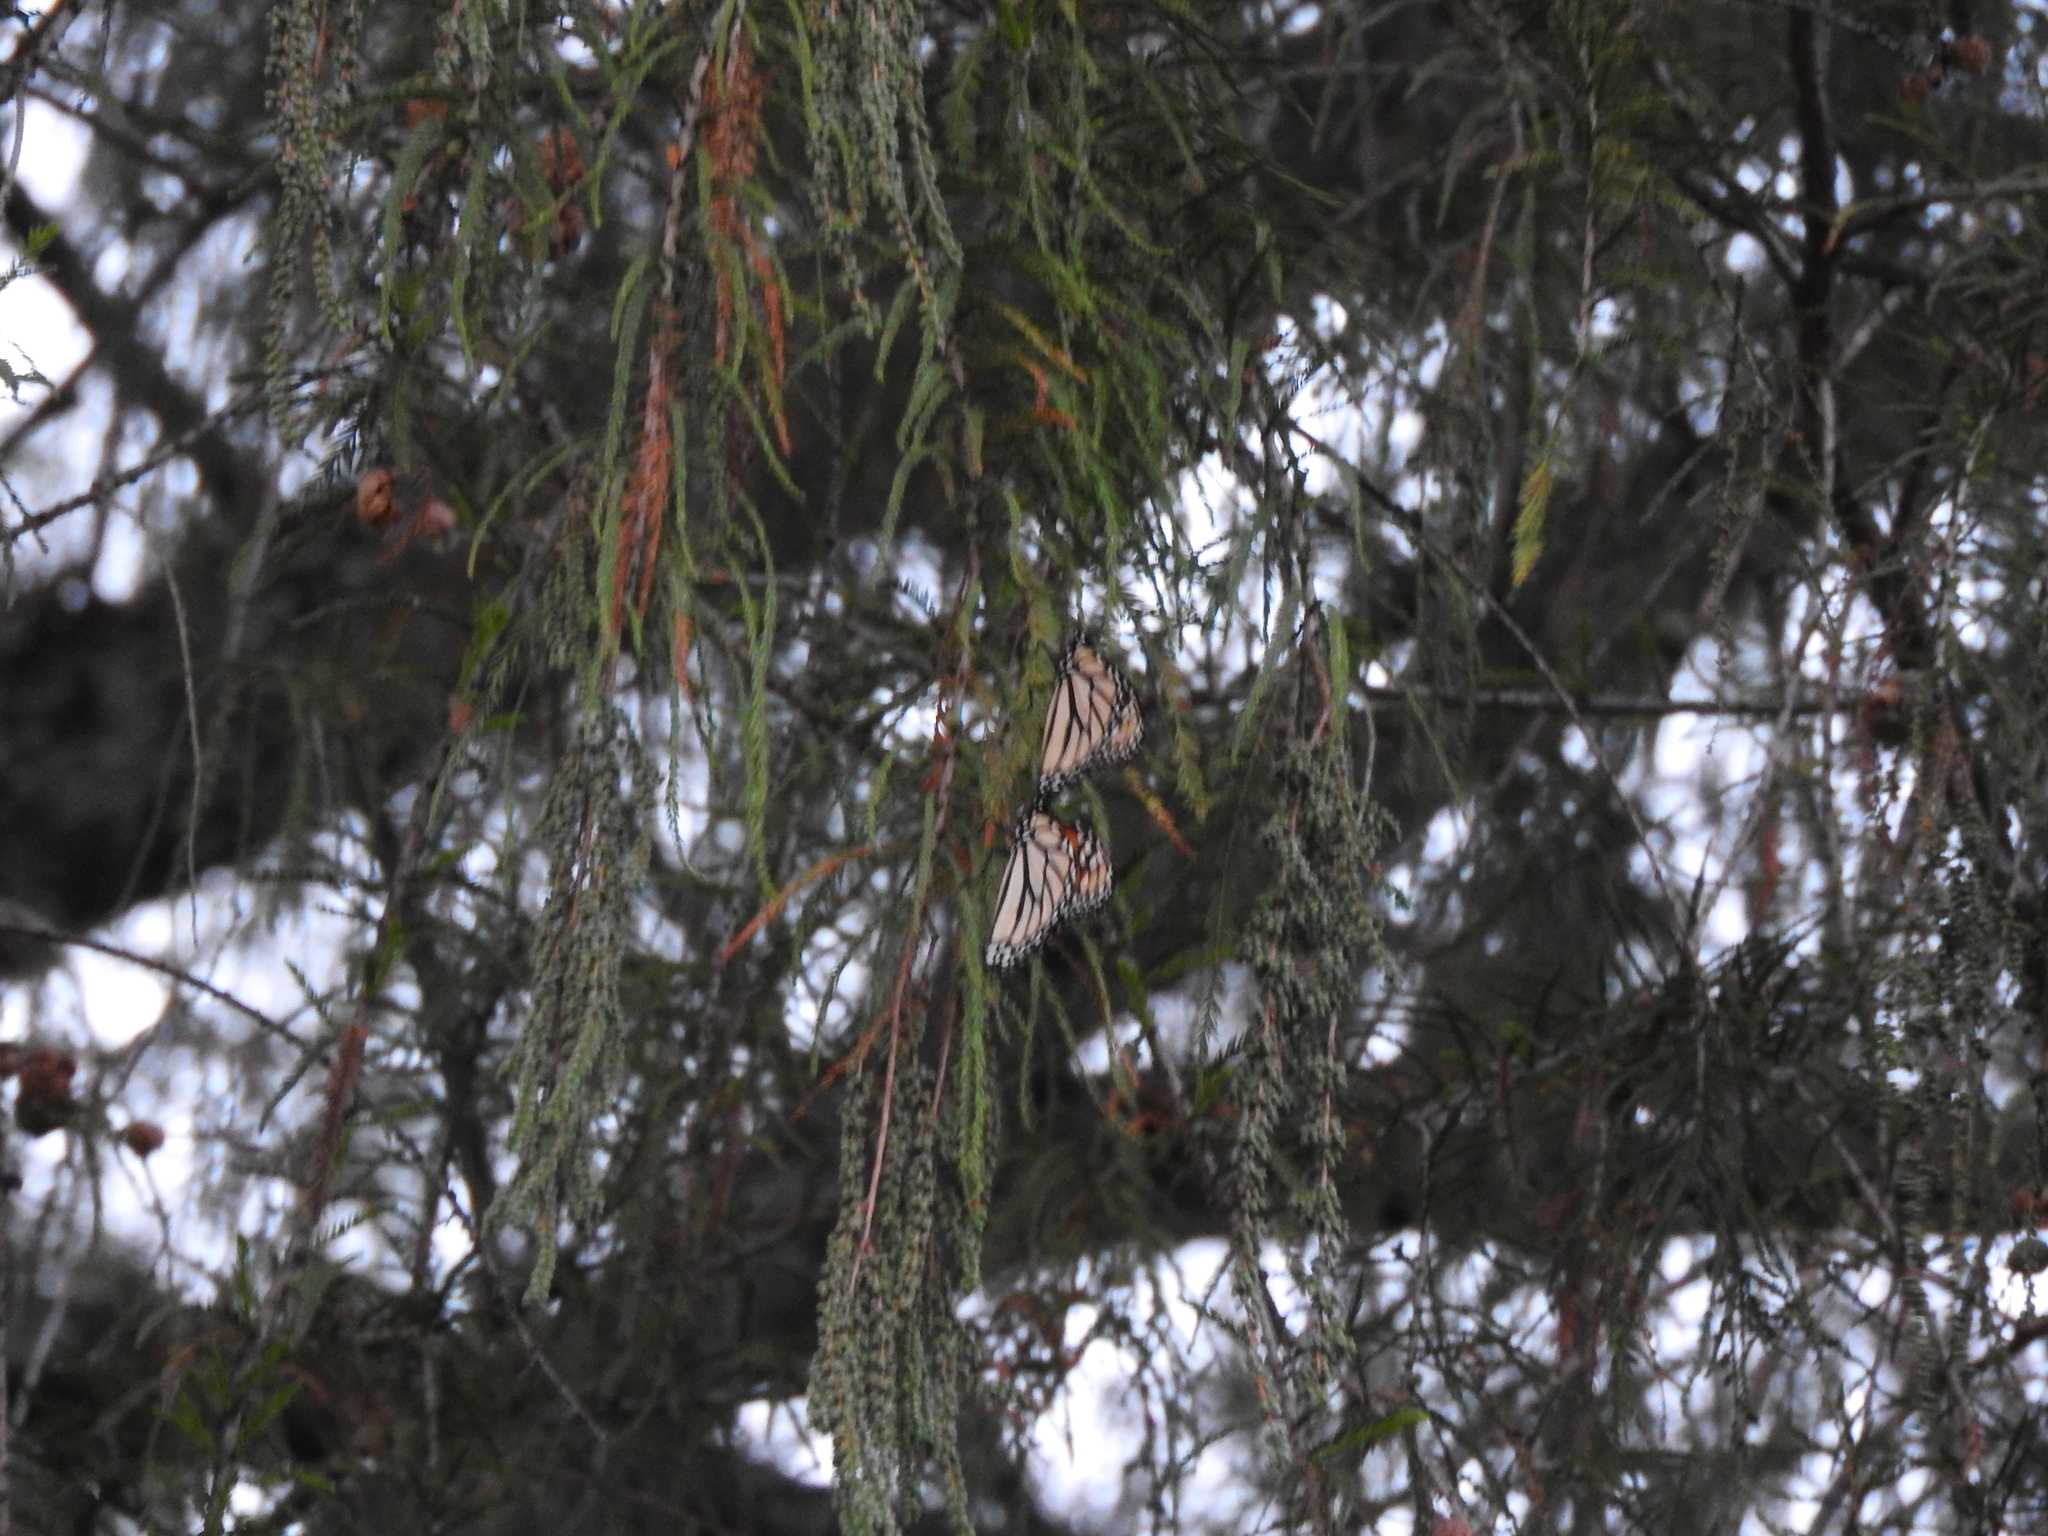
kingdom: Animalia
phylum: Arthropoda
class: Insecta
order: Lepidoptera
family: Nymphalidae
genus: Danaus
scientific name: Danaus plexippus
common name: Monarch
